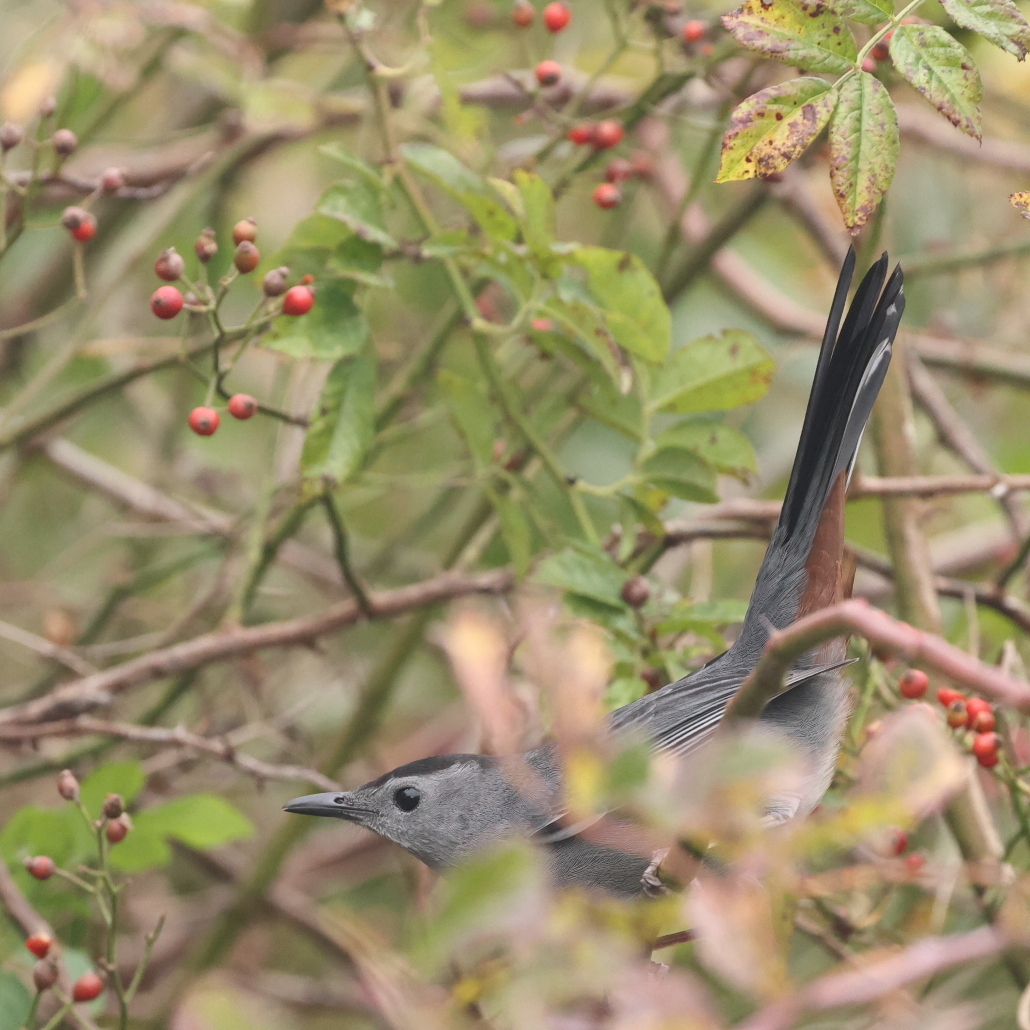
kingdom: Animalia
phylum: Chordata
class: Aves
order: Passeriformes
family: Mimidae
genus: Dumetella
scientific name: Dumetella carolinensis
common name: Gray catbird
